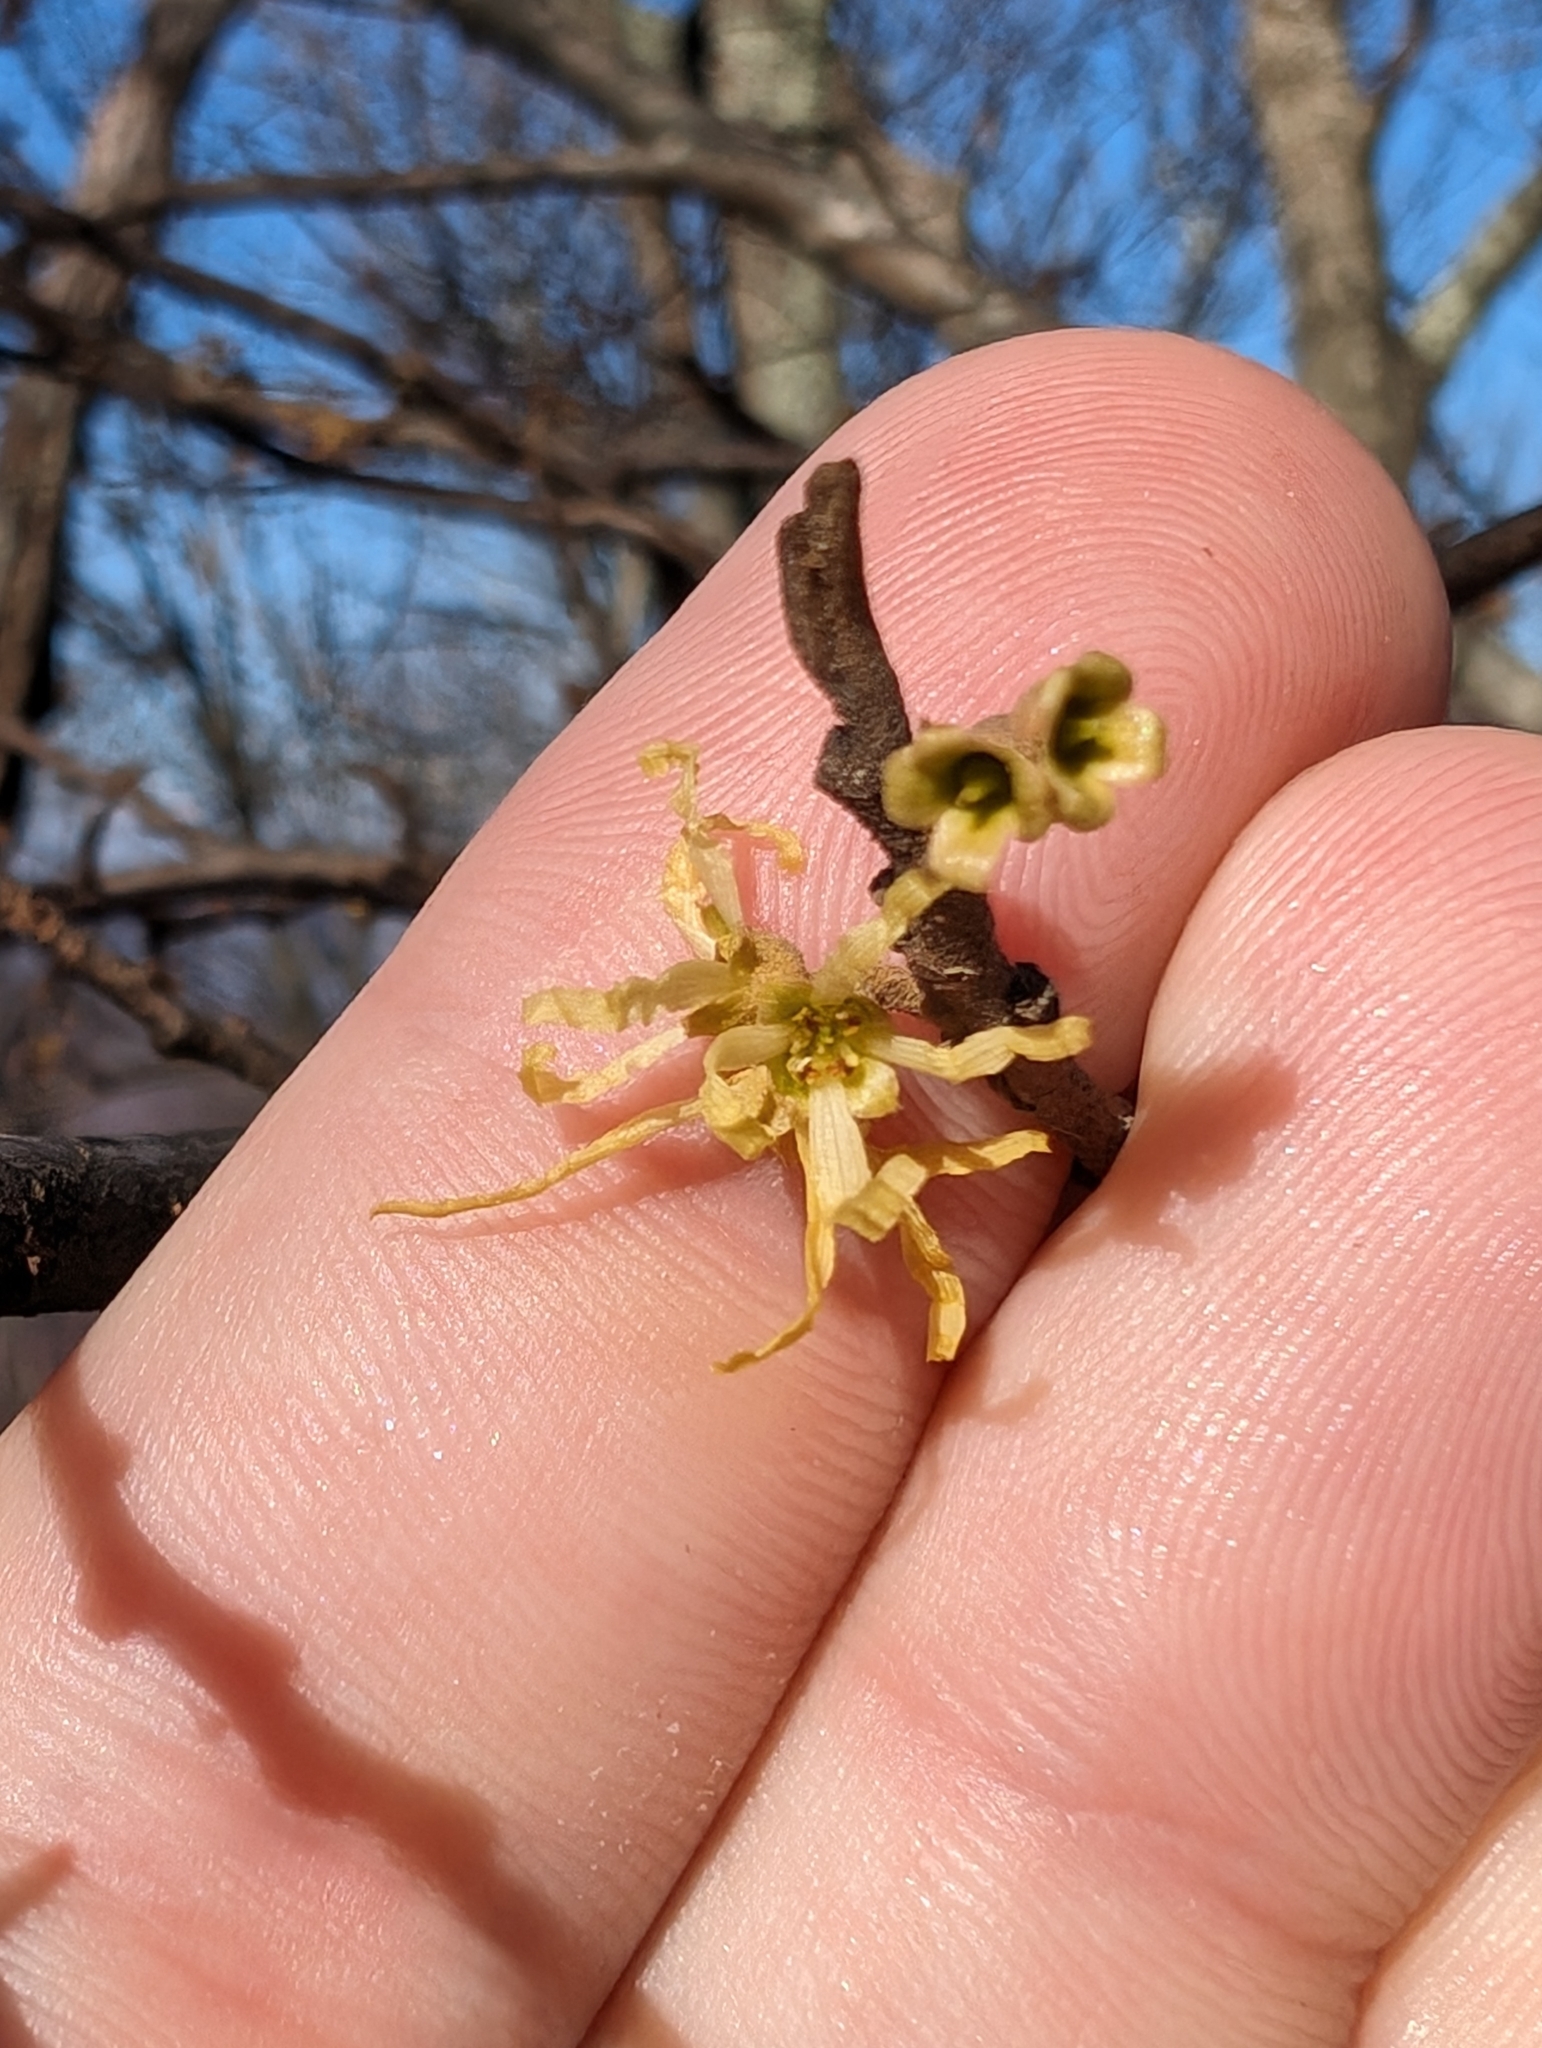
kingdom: Plantae
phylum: Tracheophyta
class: Magnoliopsida
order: Saxifragales
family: Hamamelidaceae
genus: Hamamelis
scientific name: Hamamelis virginiana
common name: Witch-hazel
